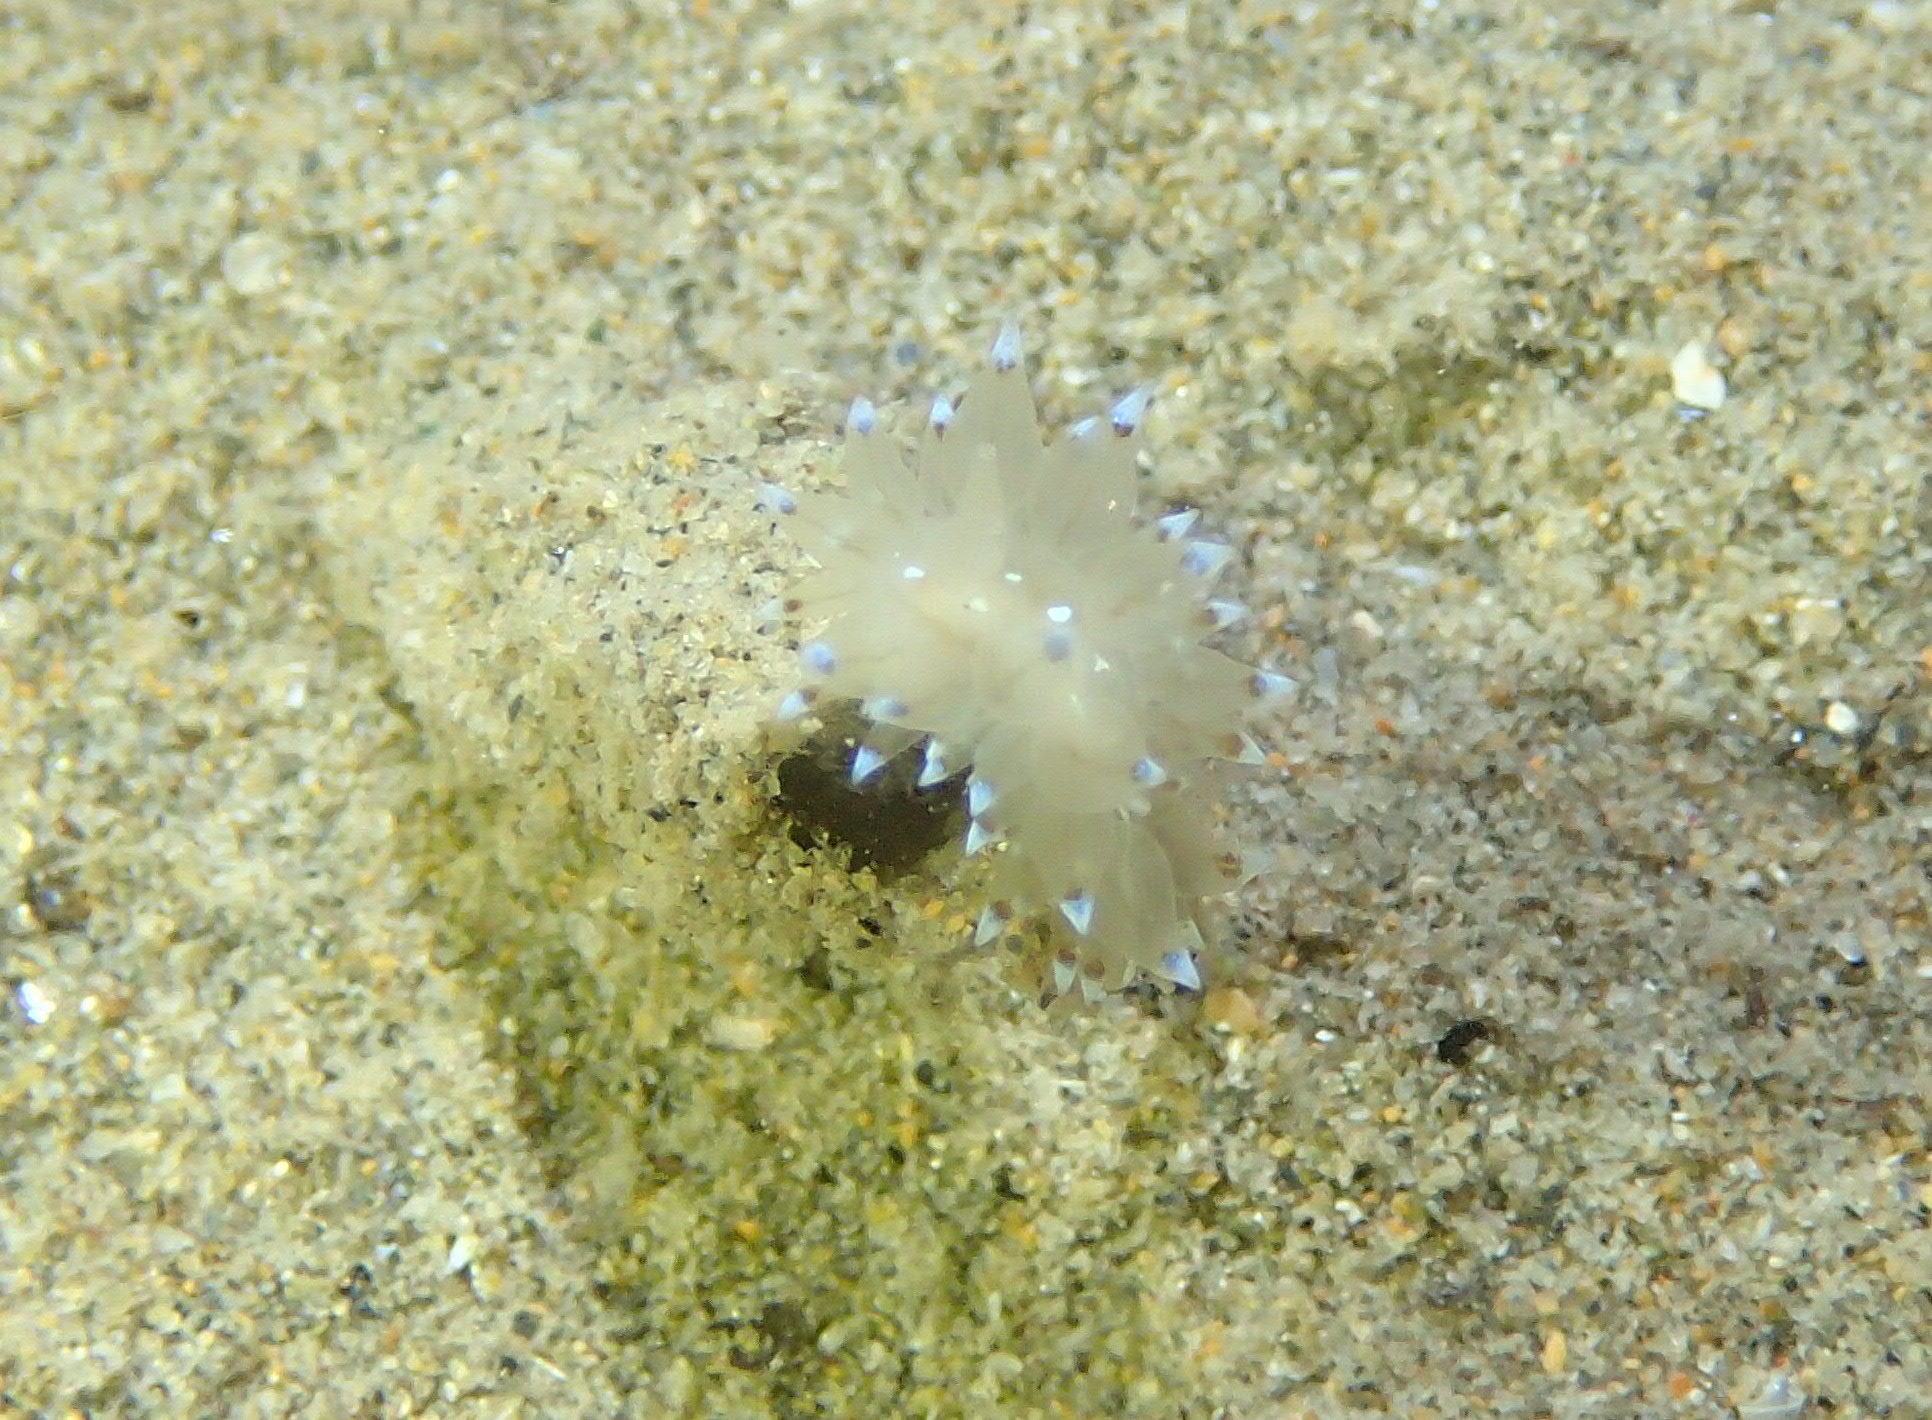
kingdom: Animalia
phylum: Mollusca
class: Gastropoda
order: Nudibranchia
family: Janolidae
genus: Antiopella
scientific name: Antiopella cristata
